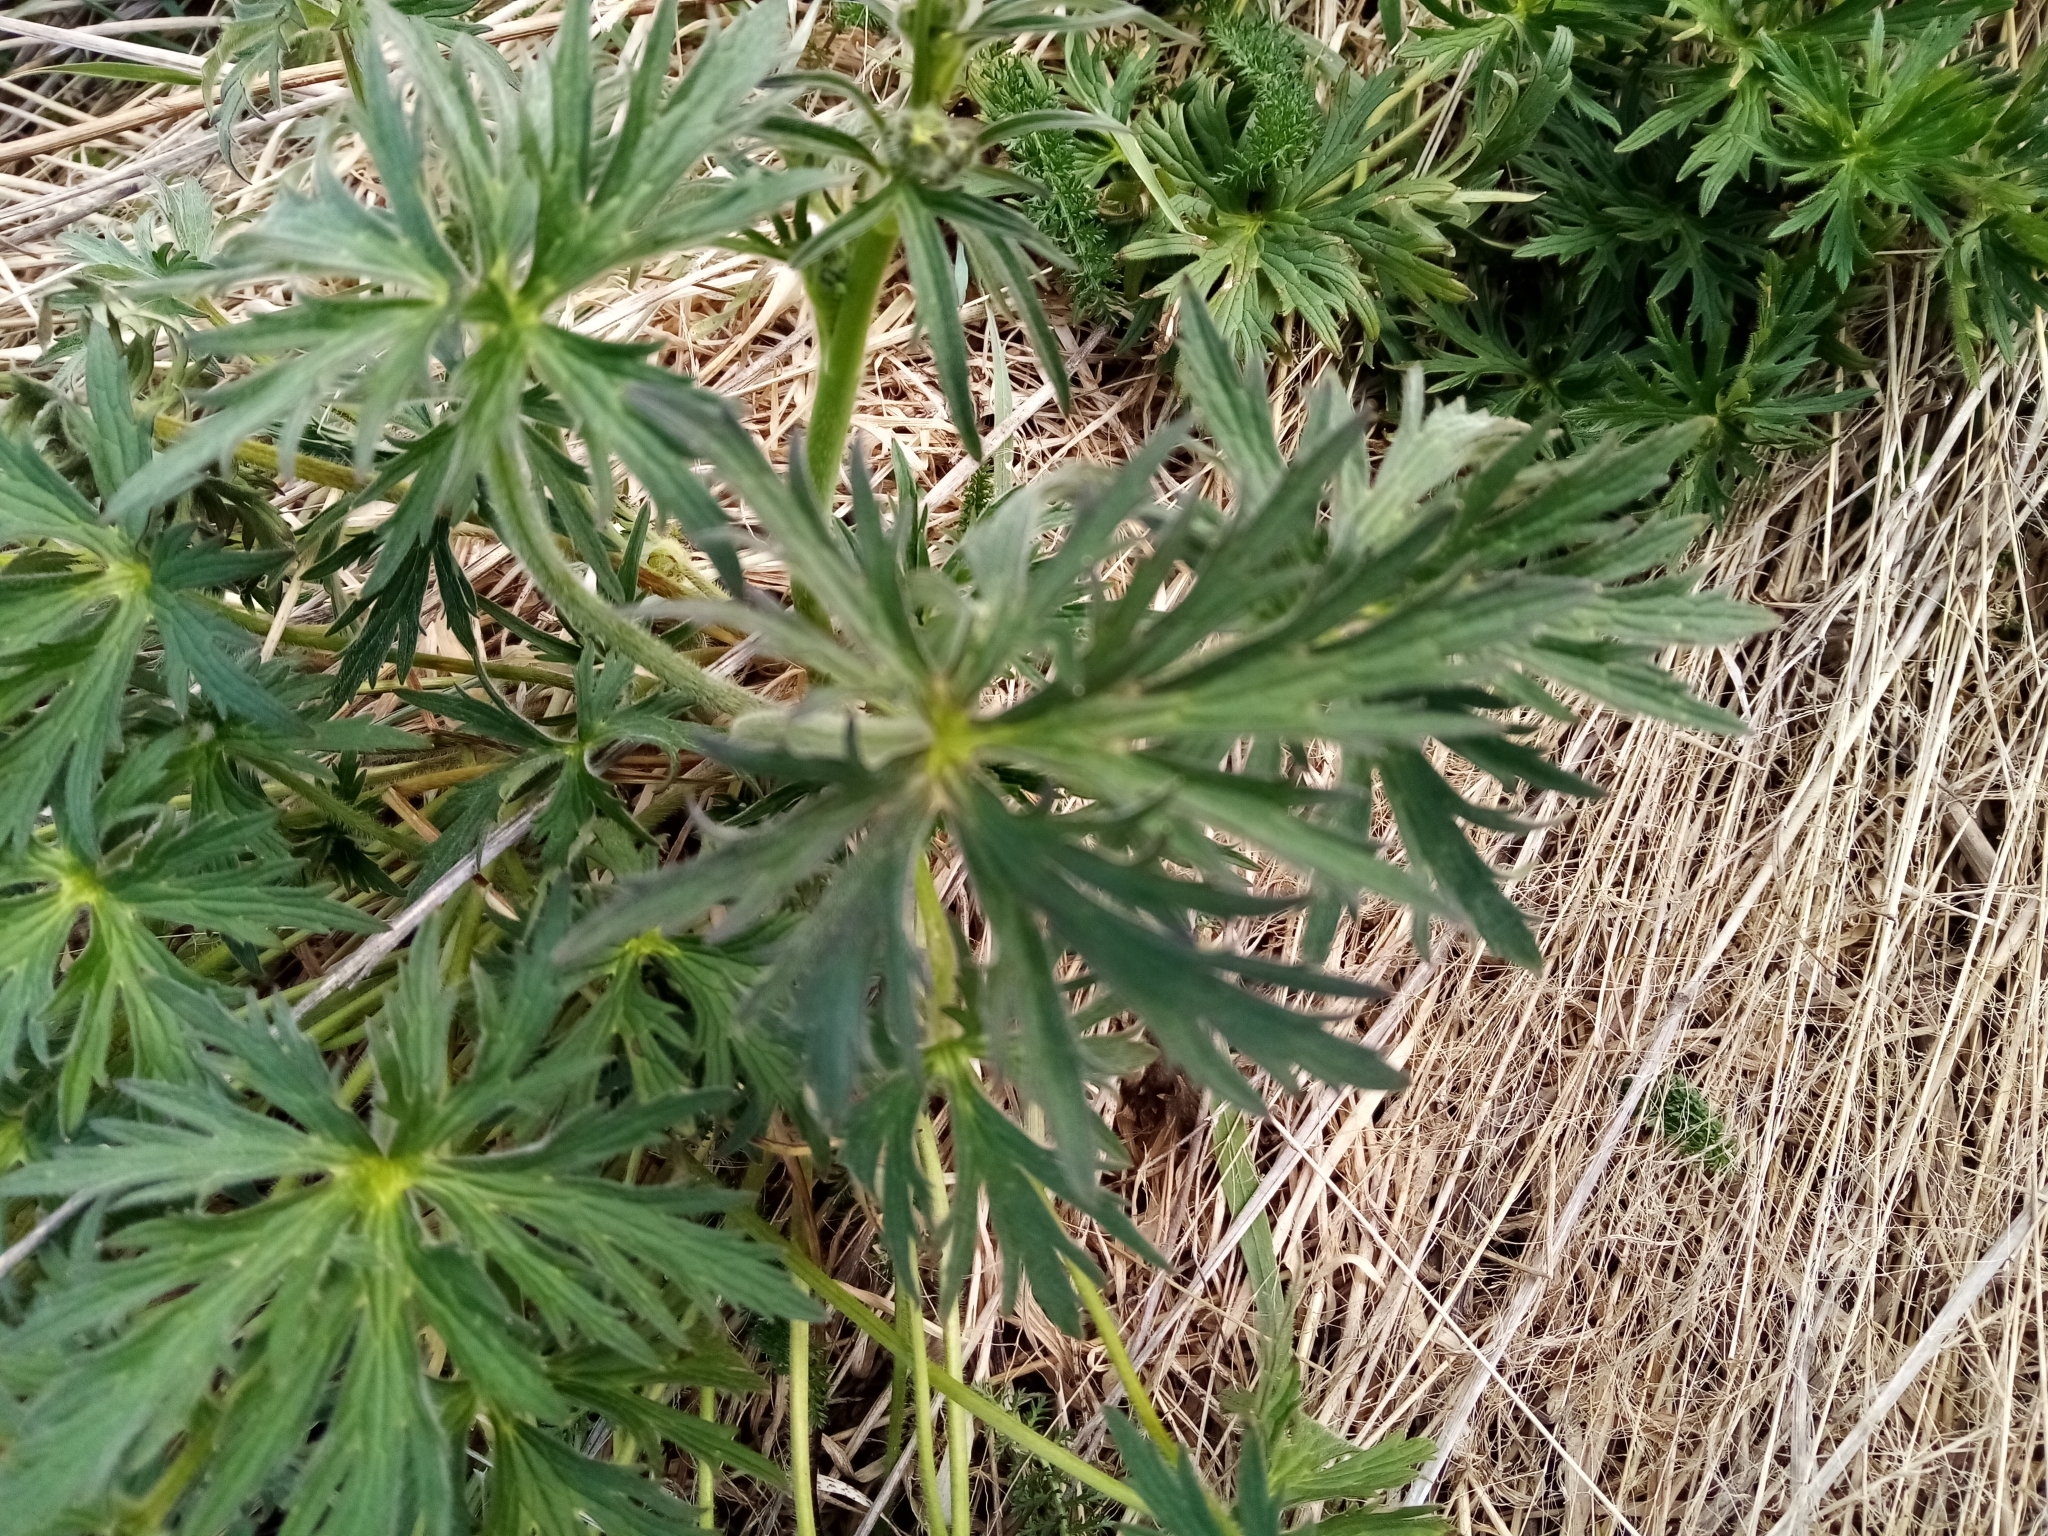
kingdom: Plantae
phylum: Tracheophyta
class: Magnoliopsida
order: Ranunculales
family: Ranunculaceae
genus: Ranunculus
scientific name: Ranunculus acris
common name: Meadow buttercup
